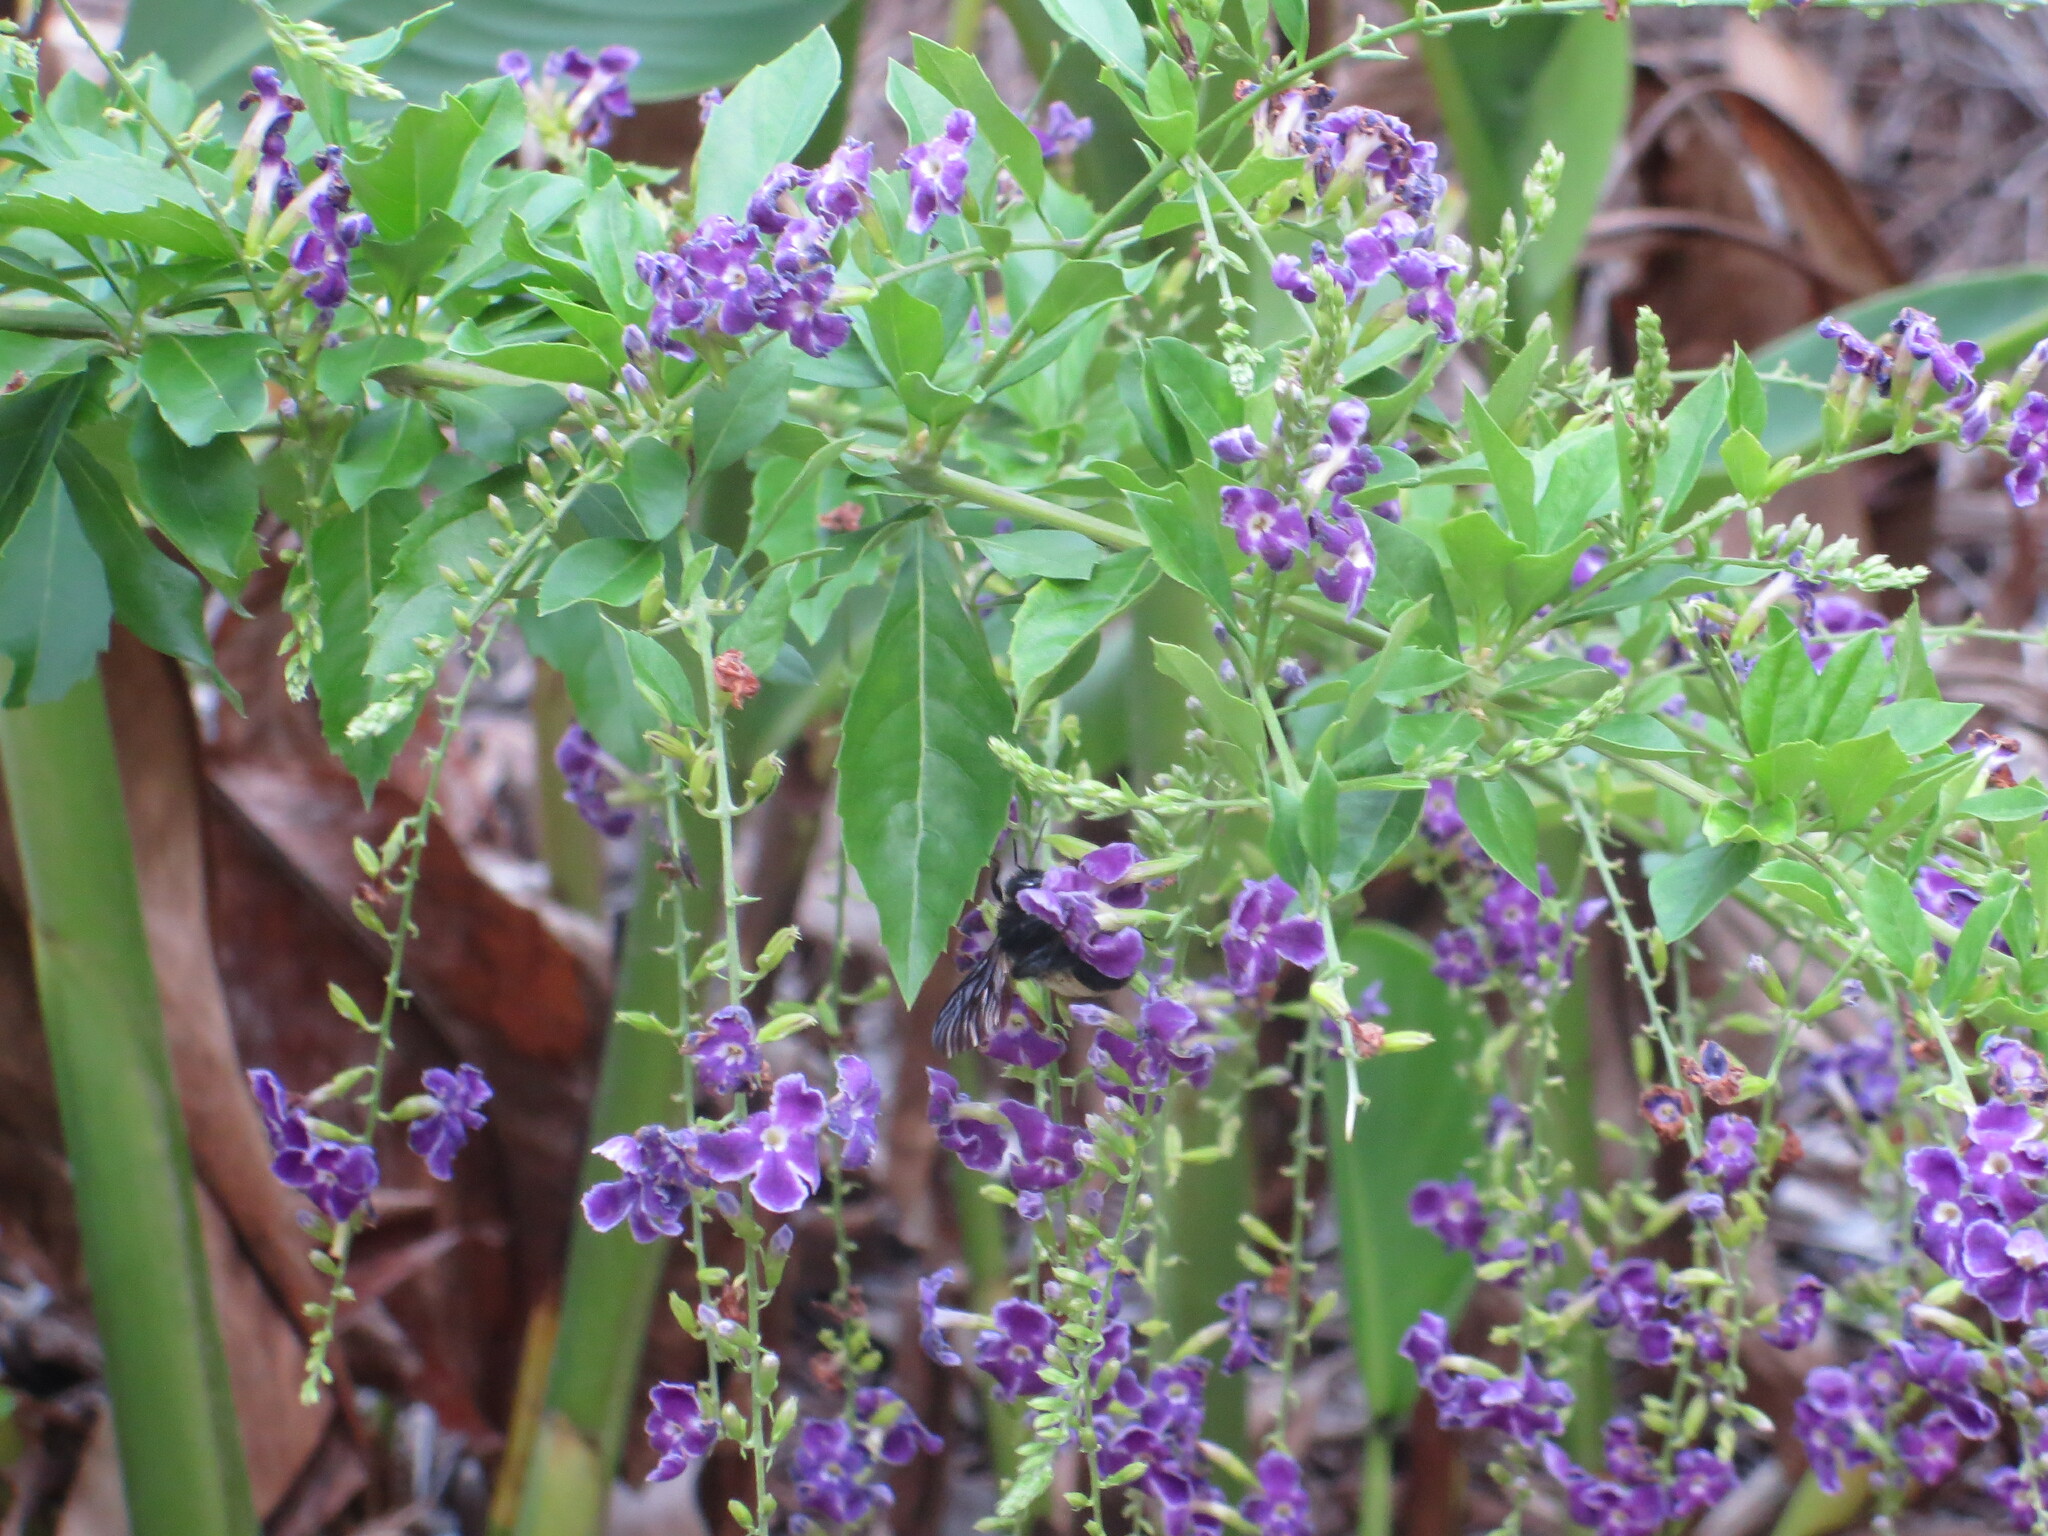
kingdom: Animalia
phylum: Arthropoda
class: Insecta
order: Hymenoptera
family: Apidae
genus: Bombus
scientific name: Bombus
